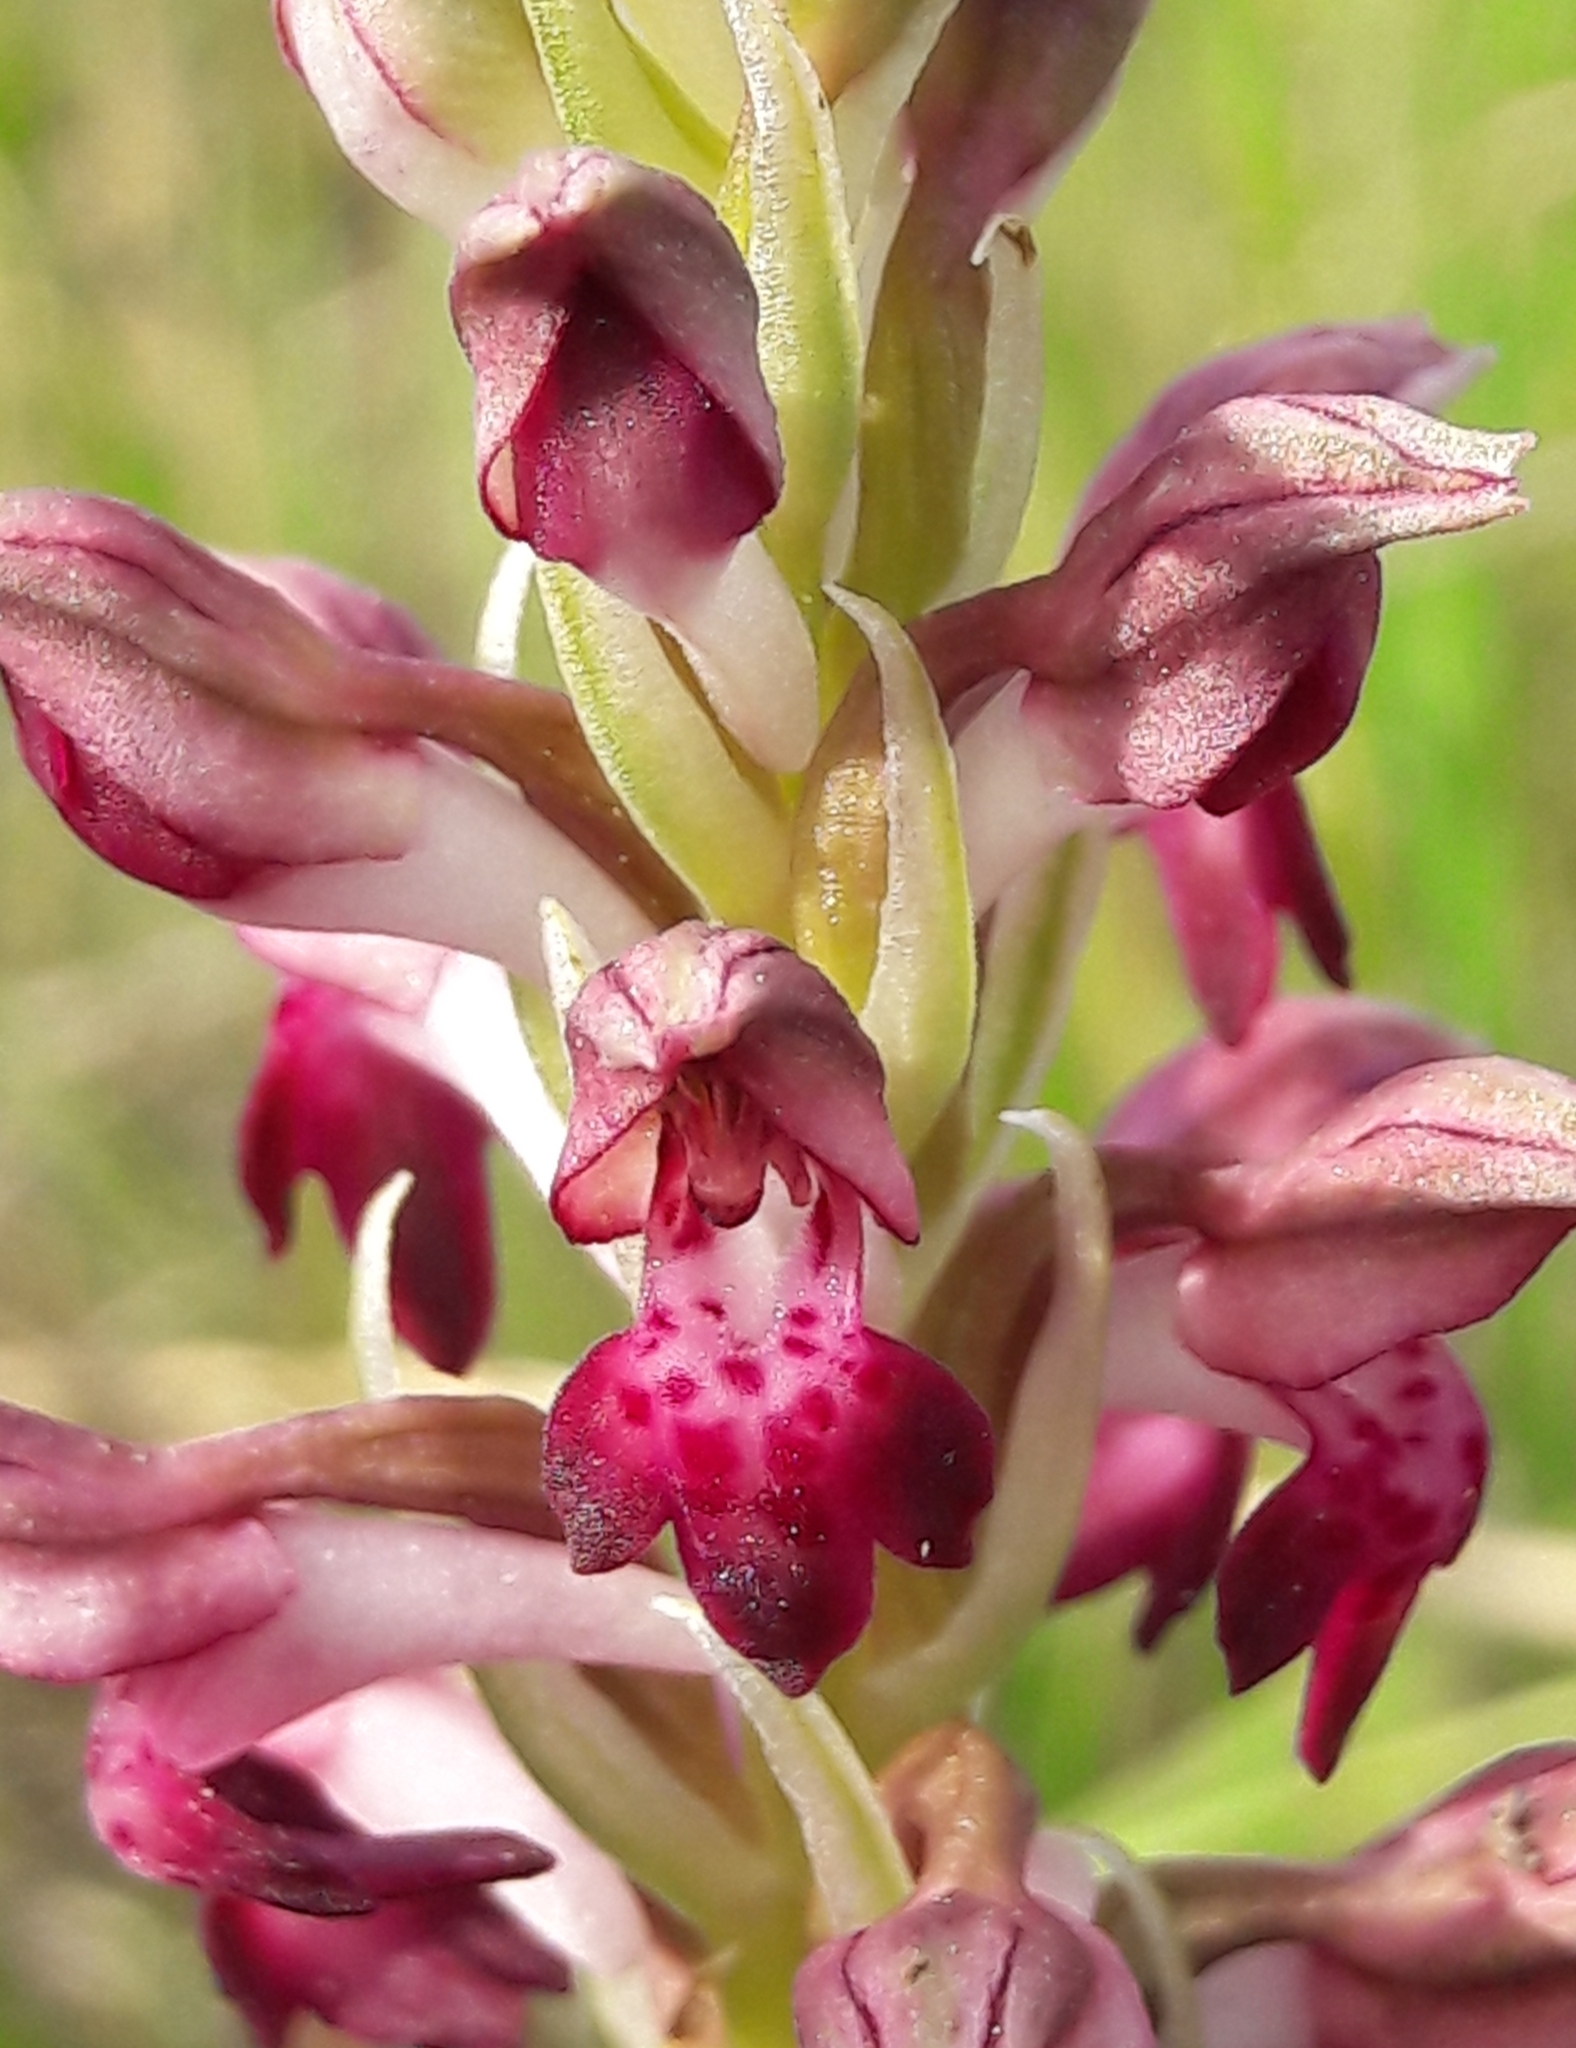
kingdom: Plantae
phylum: Tracheophyta
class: Liliopsida
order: Asparagales
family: Orchidaceae
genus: Anacamptis
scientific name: Anacamptis coriophora
